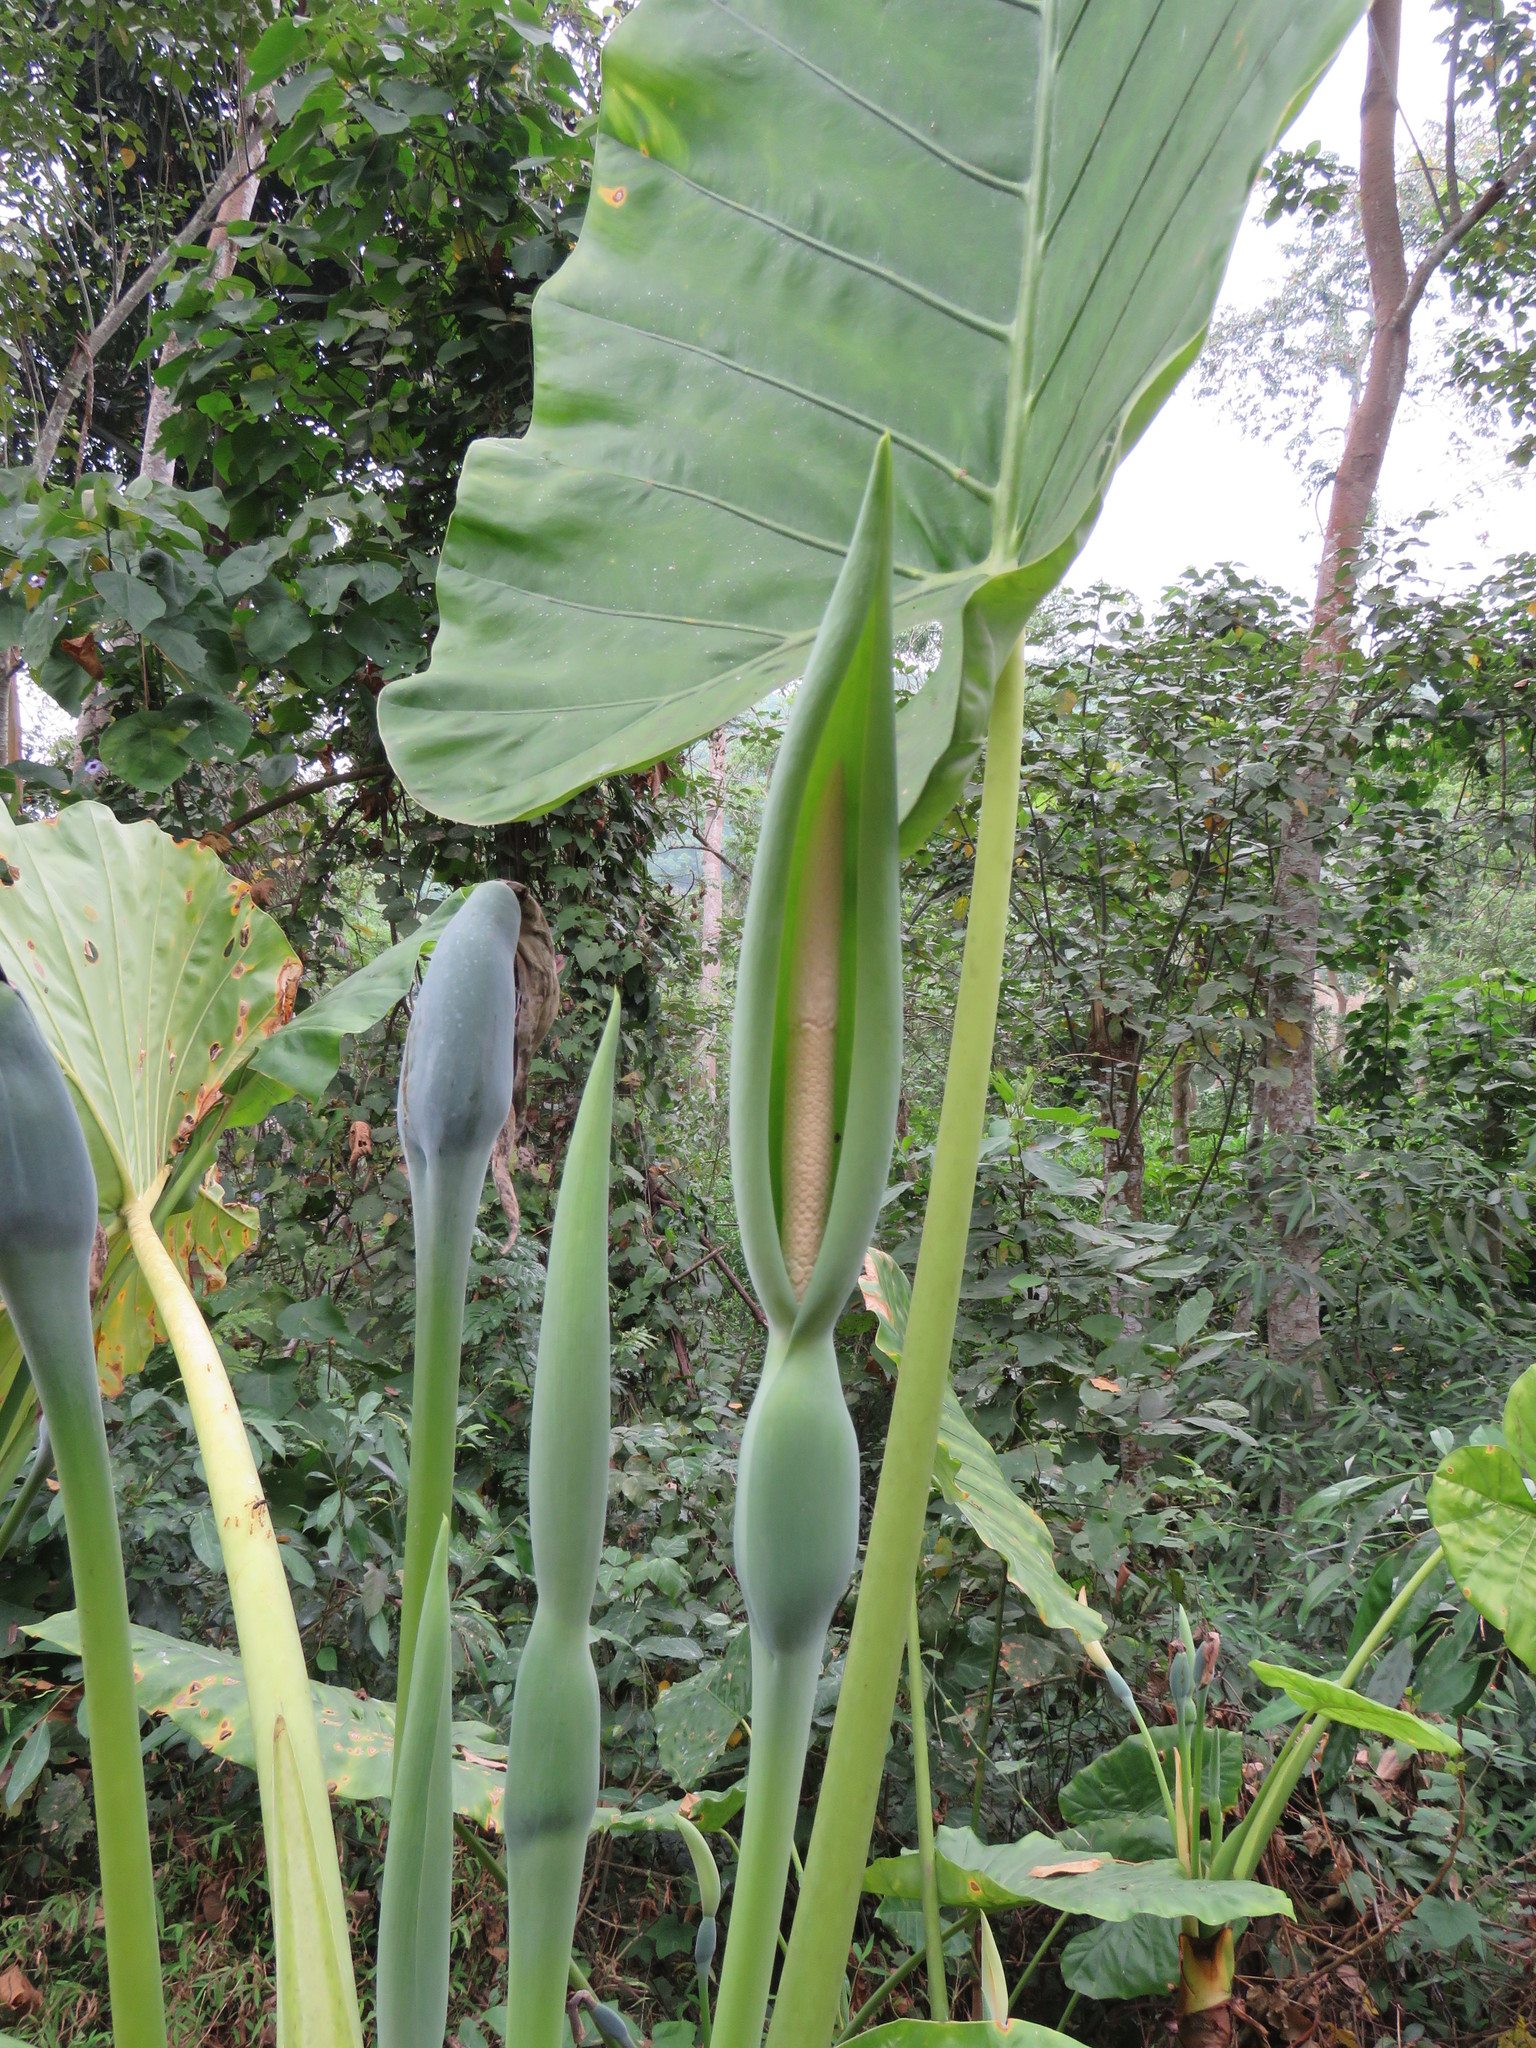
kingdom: Plantae
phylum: Tracheophyta
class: Liliopsida
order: Alismatales
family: Araceae
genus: Alocasia
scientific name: Alocasia odora
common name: Asian taro
